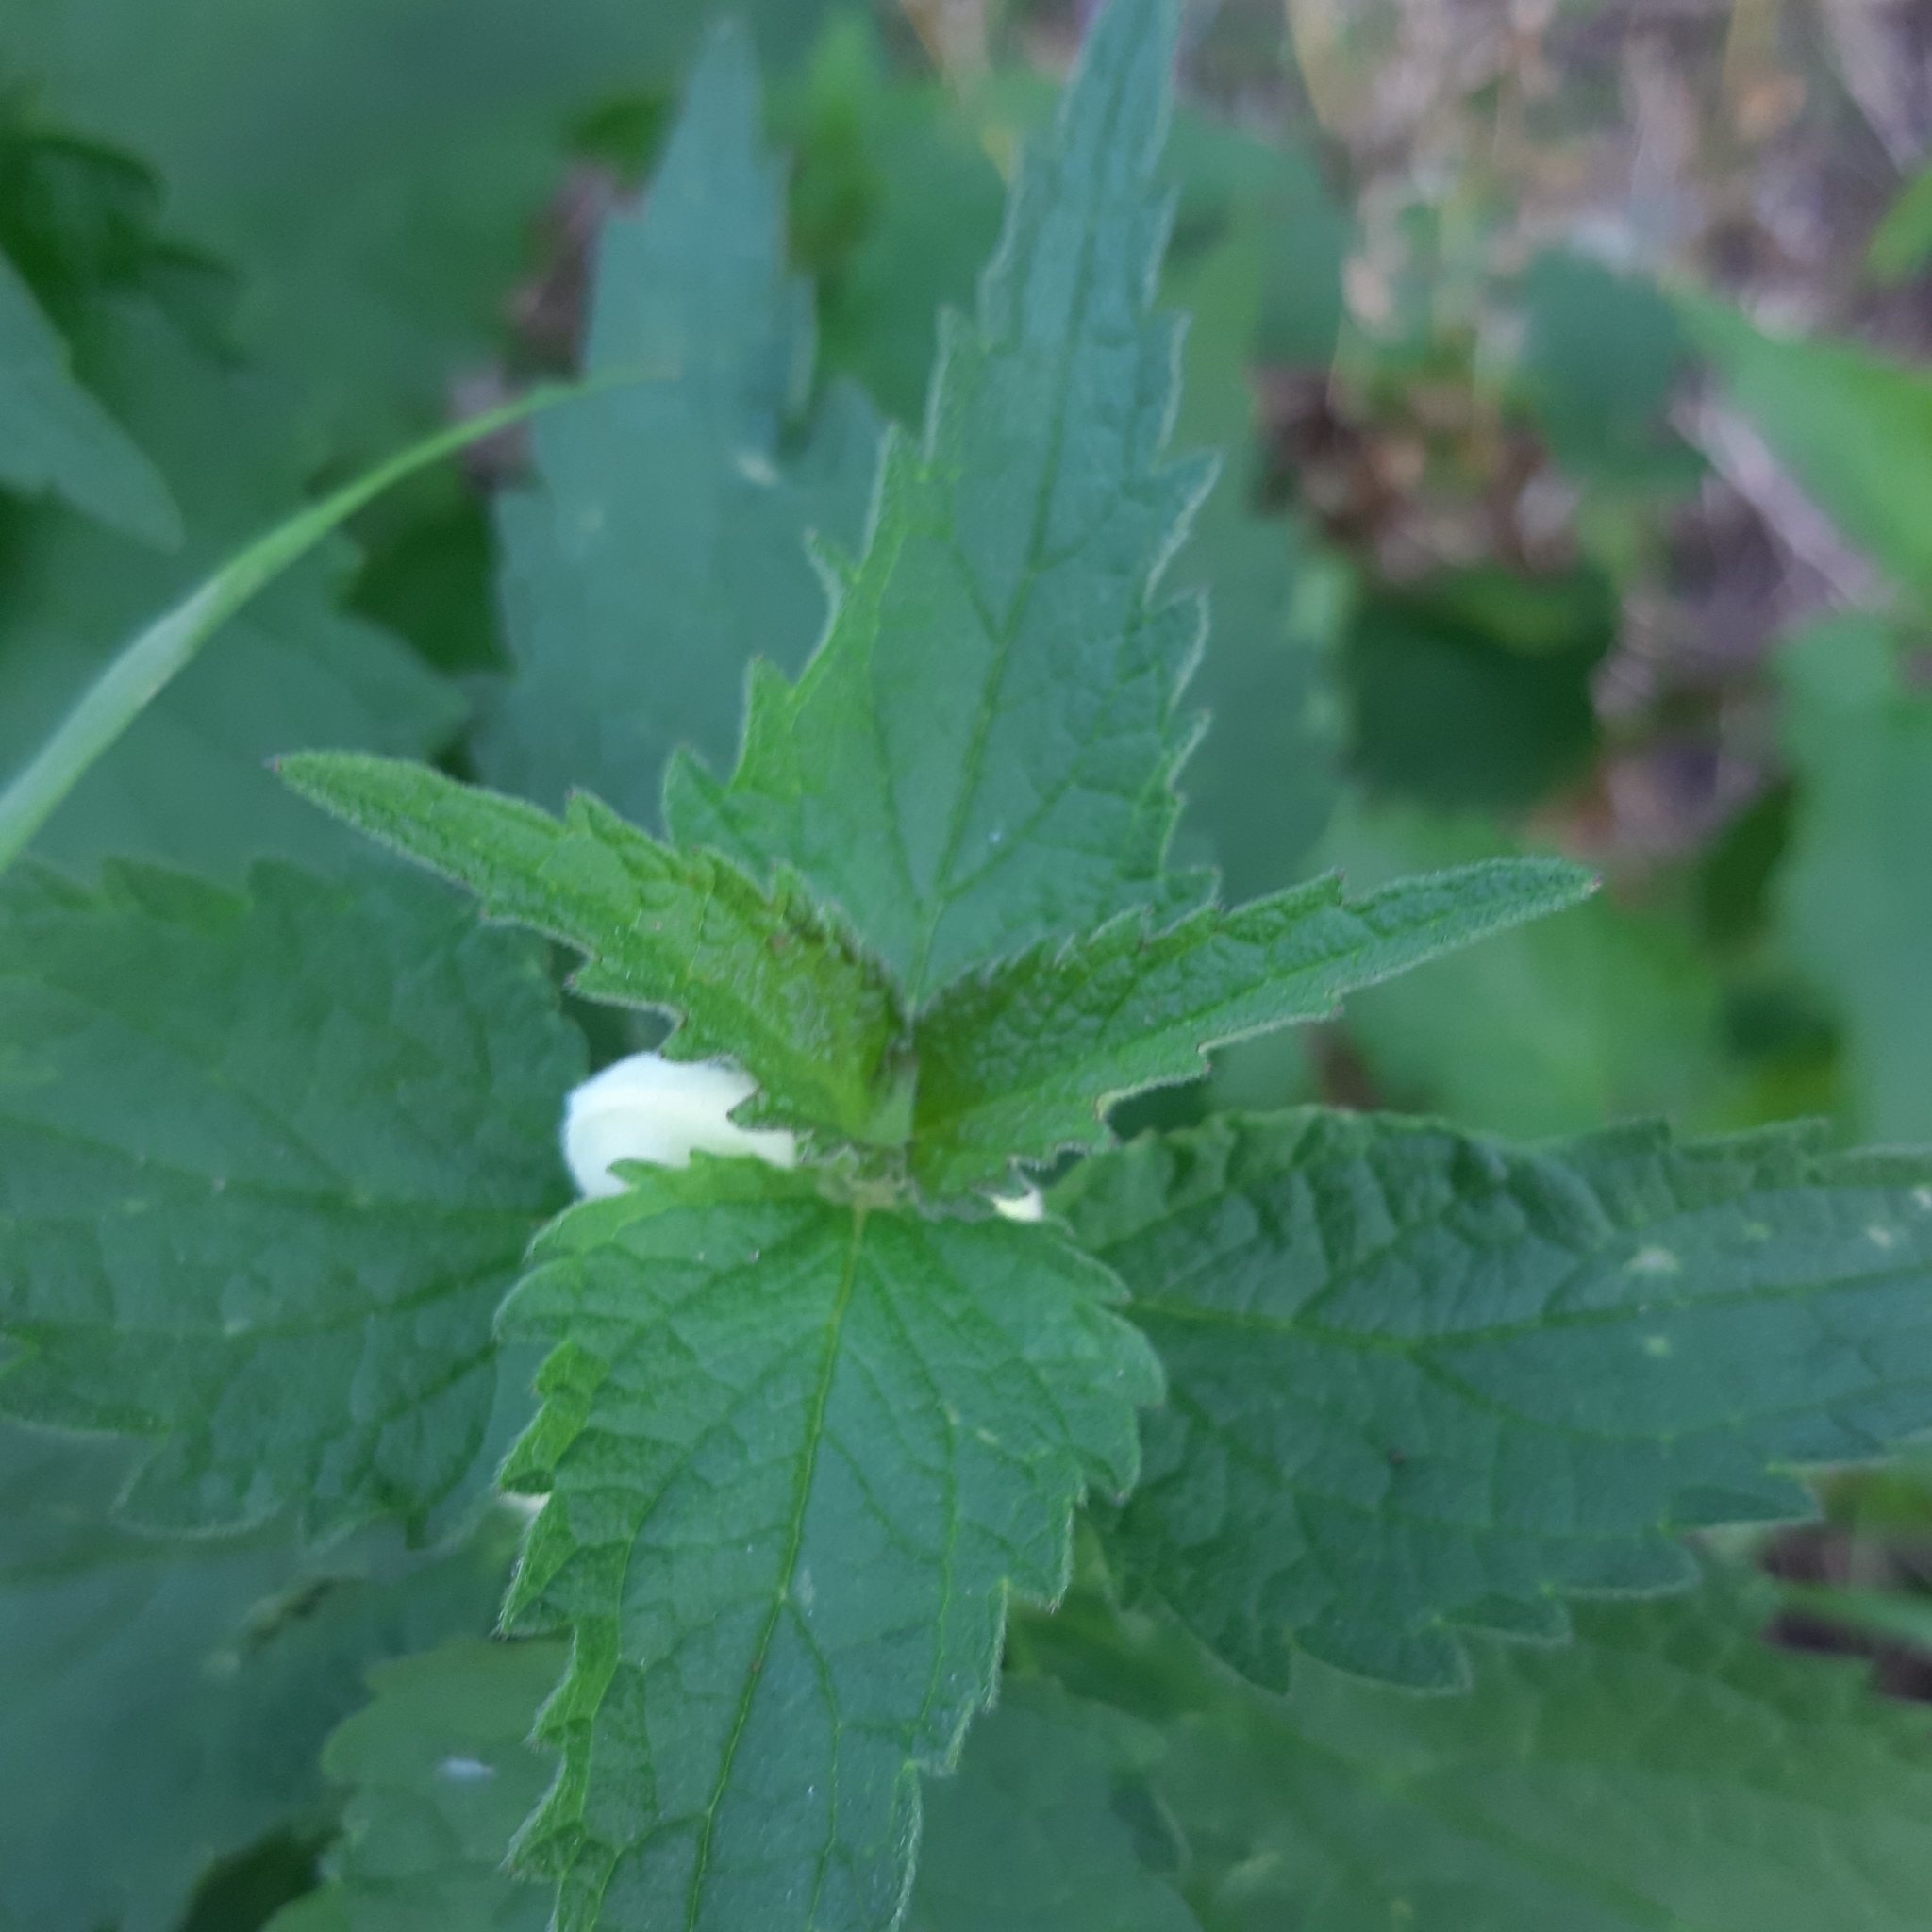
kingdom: Plantae
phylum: Tracheophyta
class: Magnoliopsida
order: Lamiales
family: Lamiaceae
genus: Lamium
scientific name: Lamium album
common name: White dead-nettle
